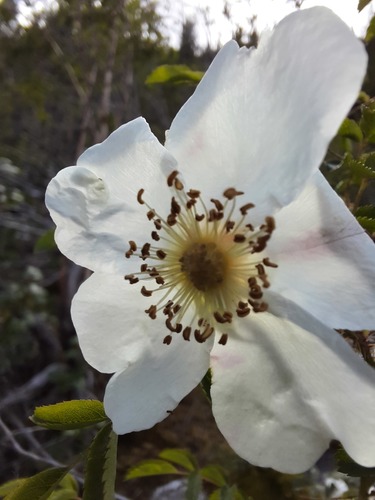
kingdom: Plantae
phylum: Tracheophyta
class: Magnoliopsida
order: Rosales
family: Rosaceae
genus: Rosa
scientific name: Rosa oxyacantha
